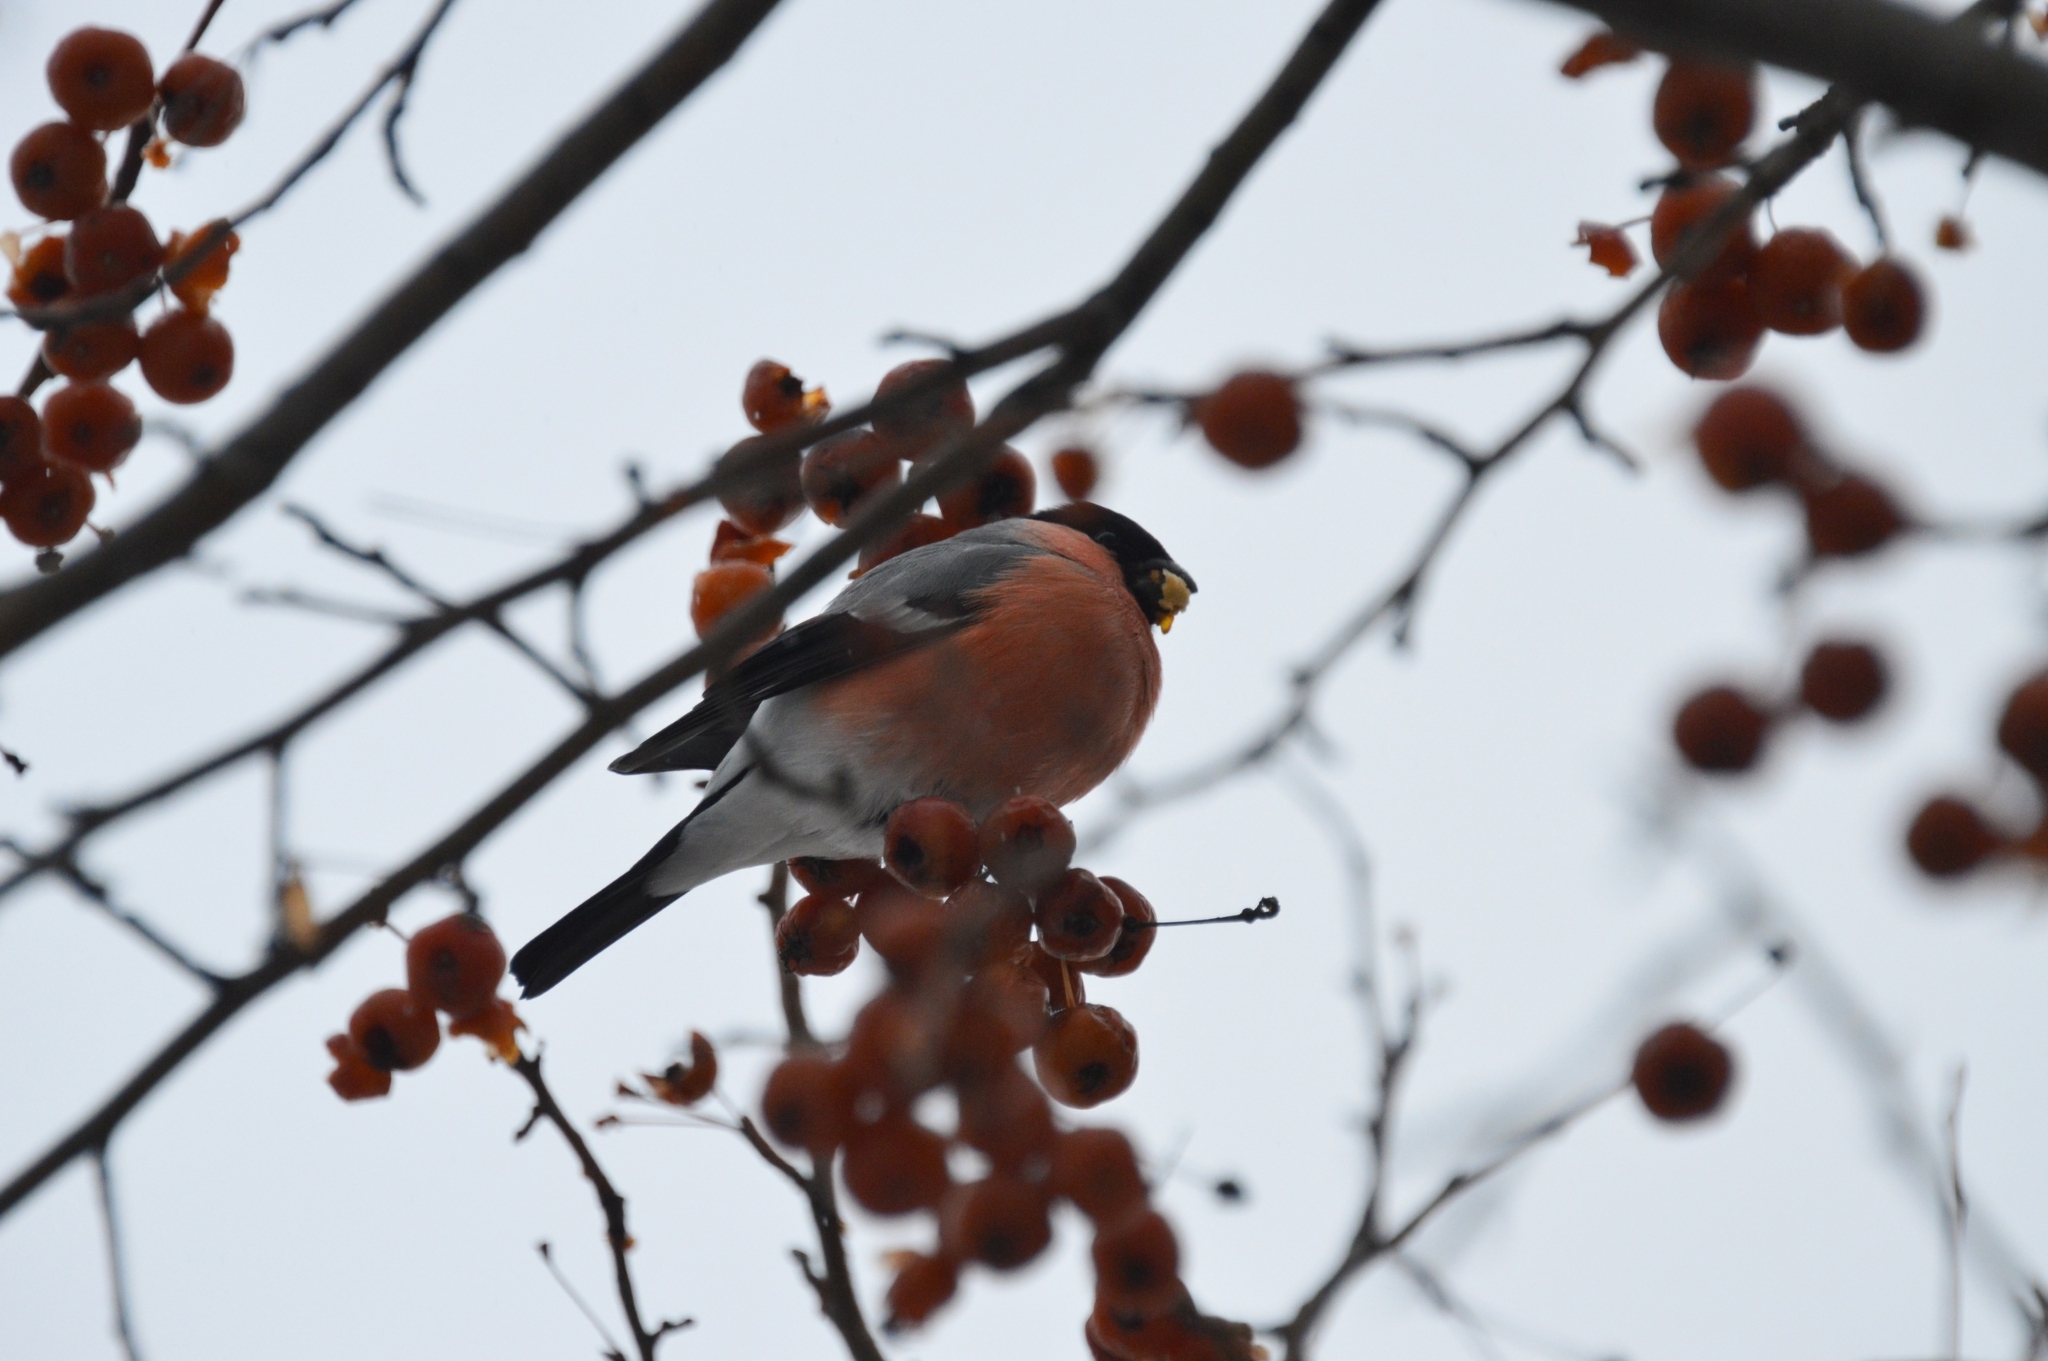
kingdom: Animalia
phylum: Chordata
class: Aves
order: Passeriformes
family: Fringillidae
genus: Pyrrhula
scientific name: Pyrrhula pyrrhula
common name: Eurasian bullfinch
